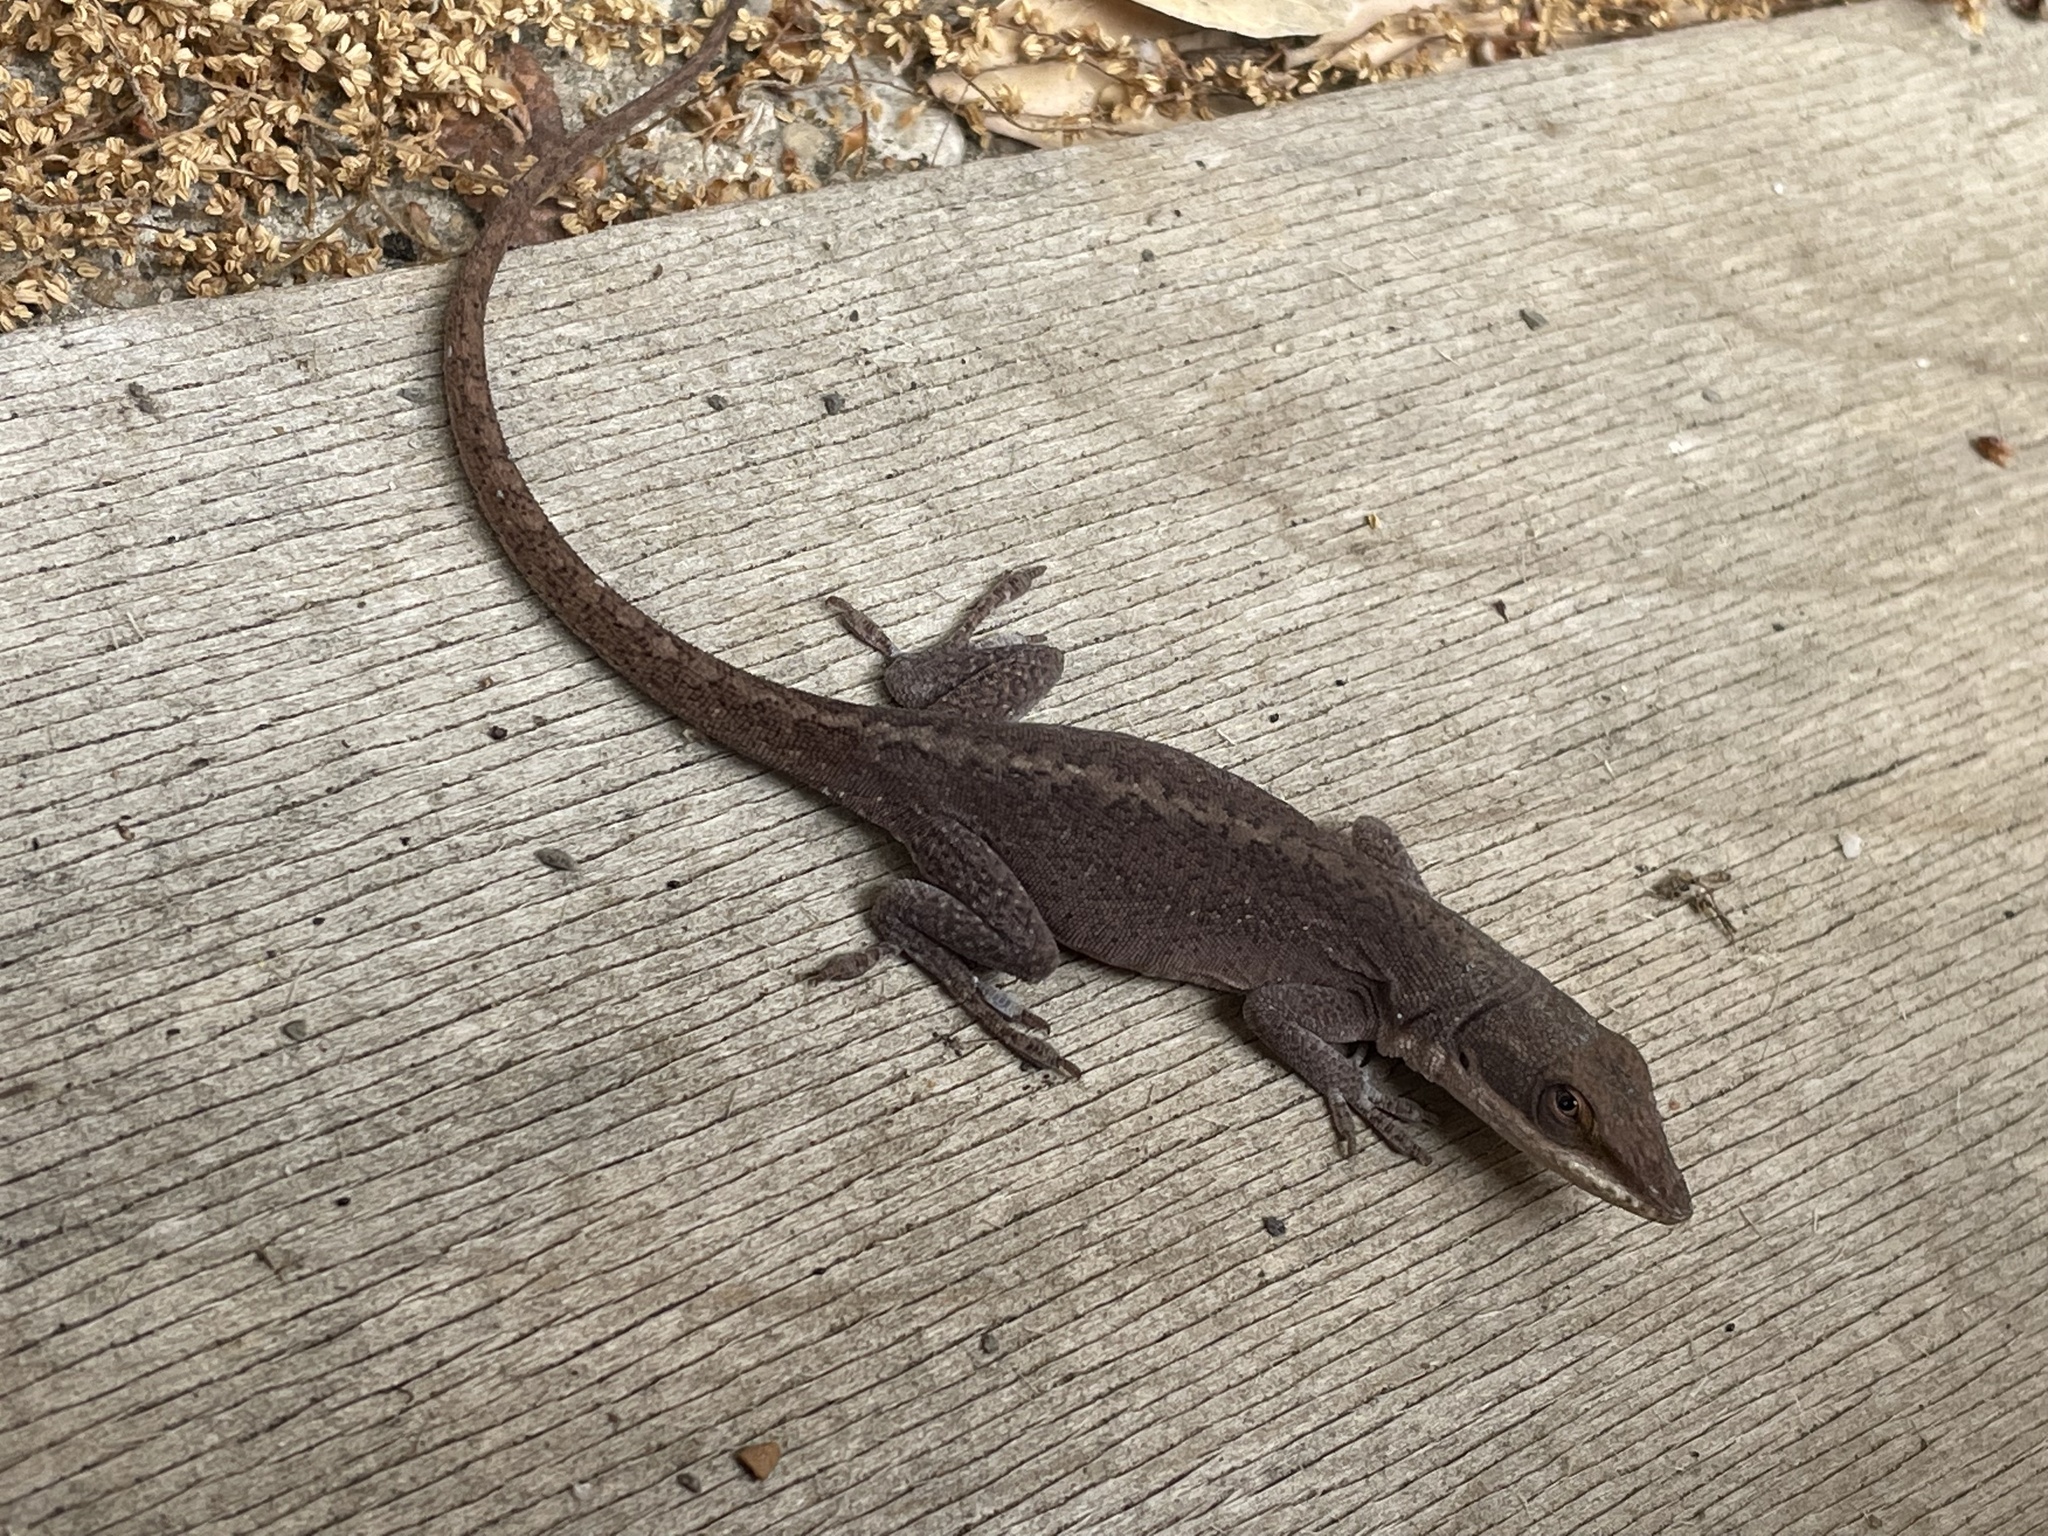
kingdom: Animalia
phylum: Chordata
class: Squamata
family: Dactyloidae
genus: Anolis
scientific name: Anolis carolinensis
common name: Green anole
